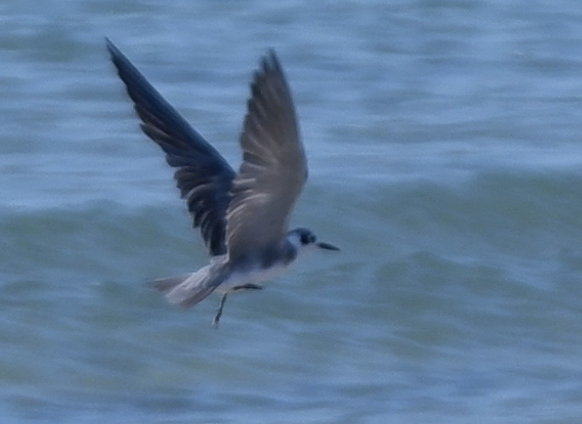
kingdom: Animalia
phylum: Chordata
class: Aves
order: Charadriiformes
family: Laridae
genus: Chlidonias
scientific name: Chlidonias niger
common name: Black tern
